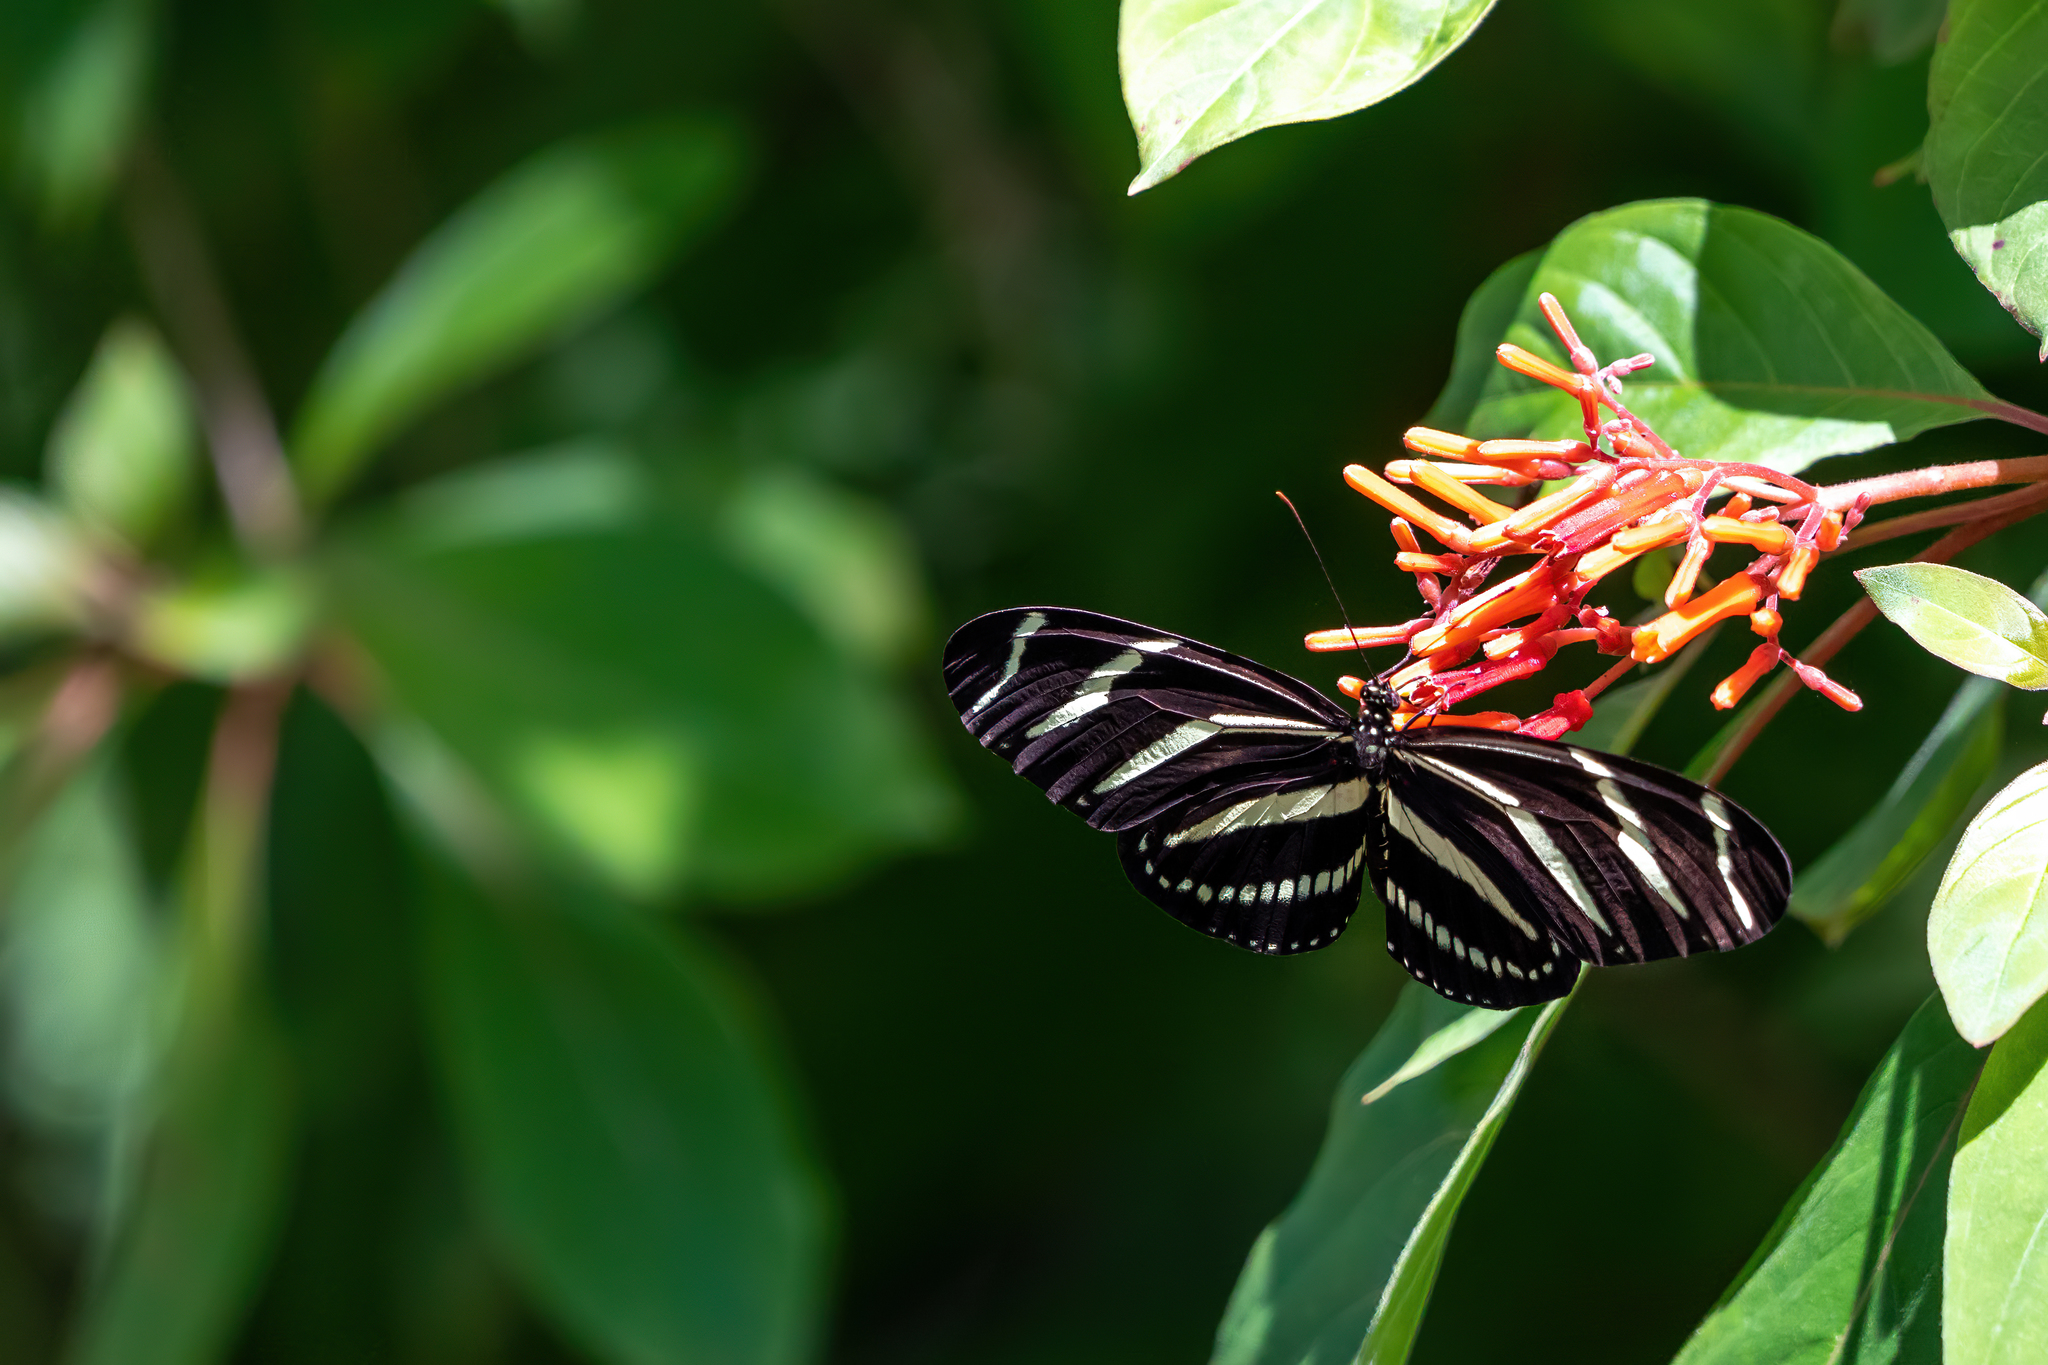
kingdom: Animalia
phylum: Arthropoda
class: Insecta
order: Lepidoptera
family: Nymphalidae
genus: Heliconius
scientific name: Heliconius charithonia
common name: Zebra long wing
